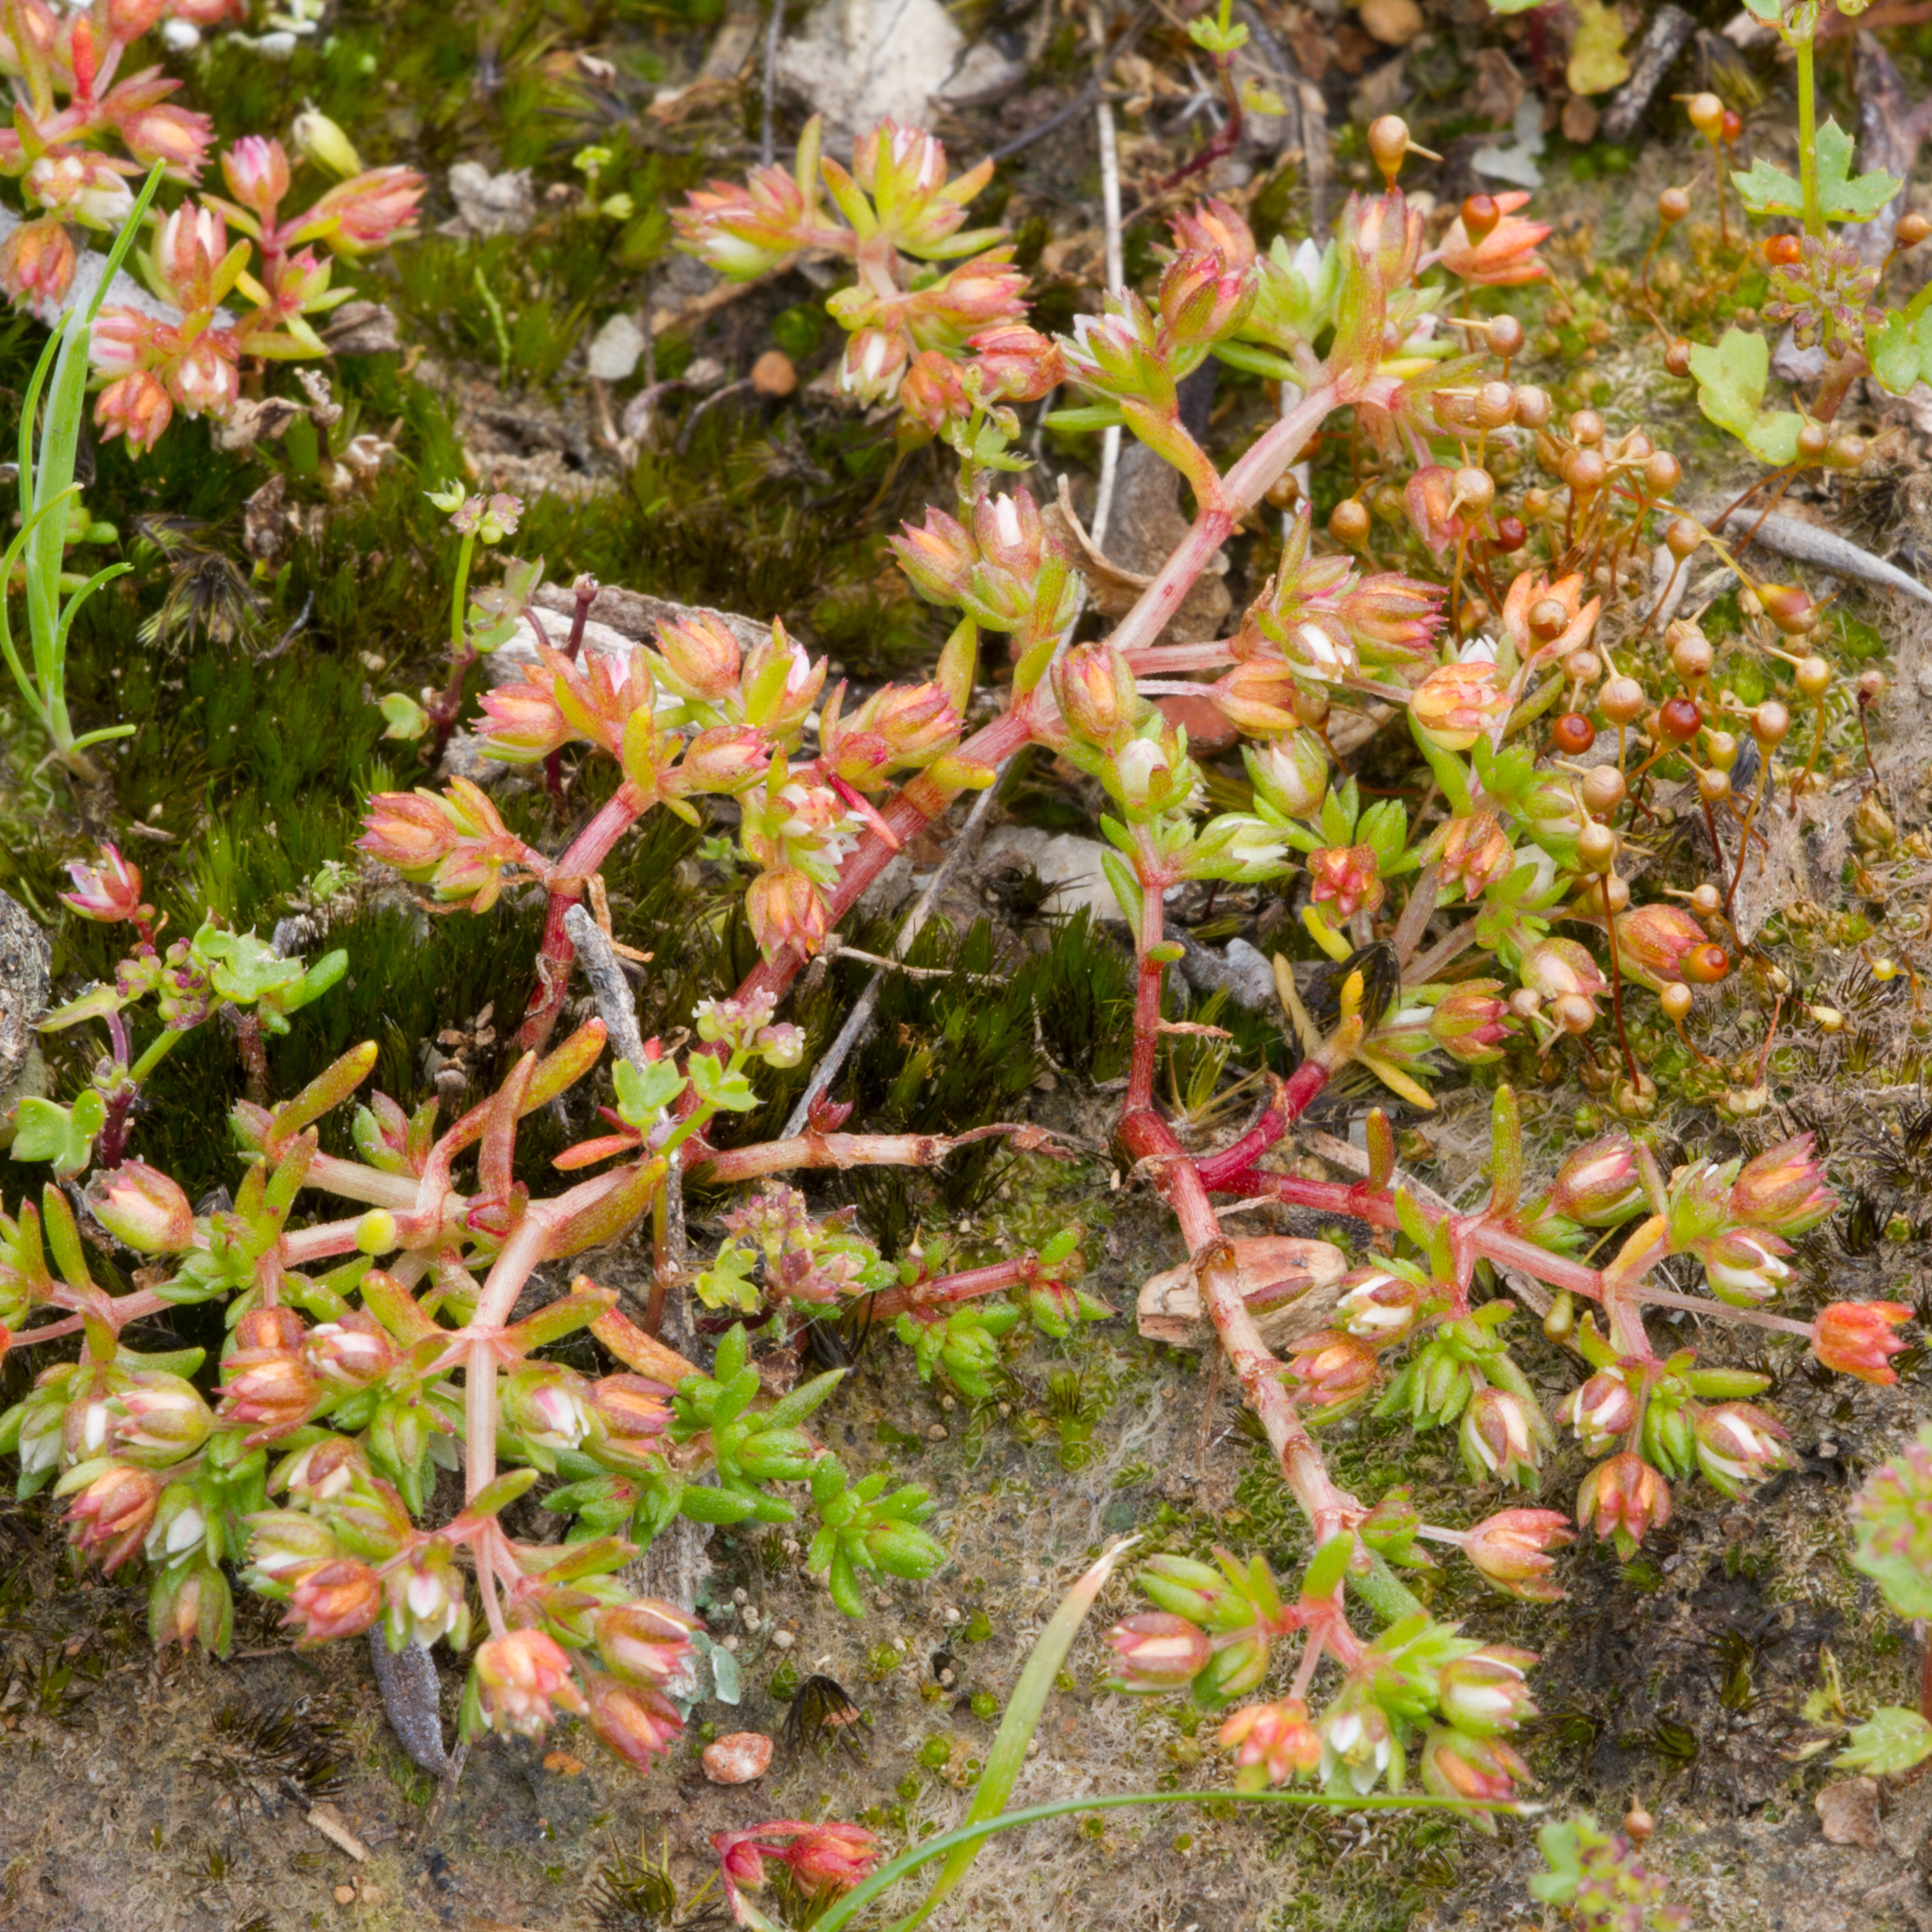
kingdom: Plantae
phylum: Tracheophyta
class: Magnoliopsida
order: Saxifragales
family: Crassulaceae
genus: Crassula
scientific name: Crassula decumbens
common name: Scilly pigmyweed
